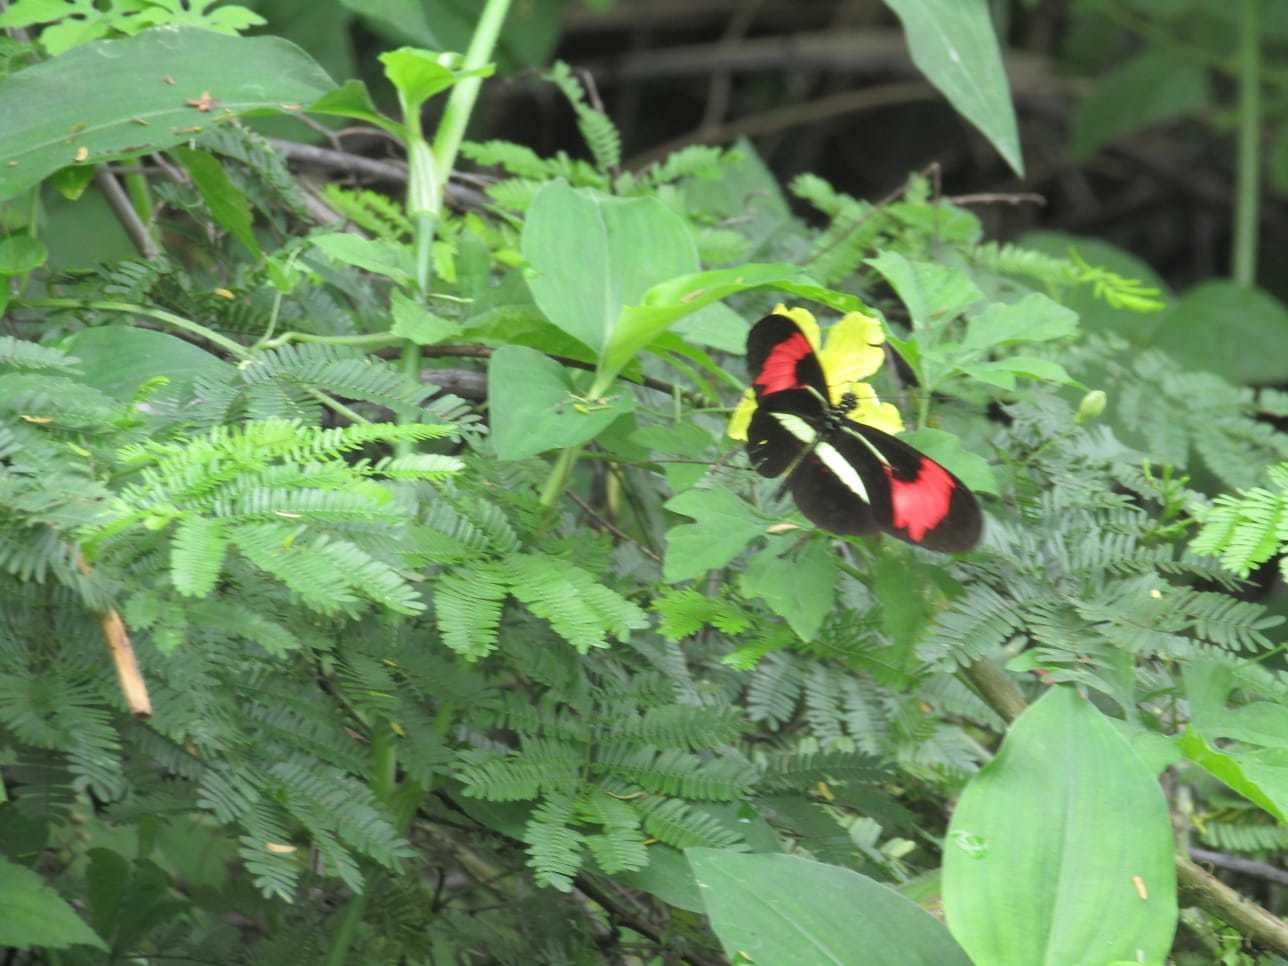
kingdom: Animalia
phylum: Arthropoda
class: Insecta
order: Lepidoptera
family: Nymphalidae
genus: Heliconius
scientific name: Heliconius erato
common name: Common patch longwing
